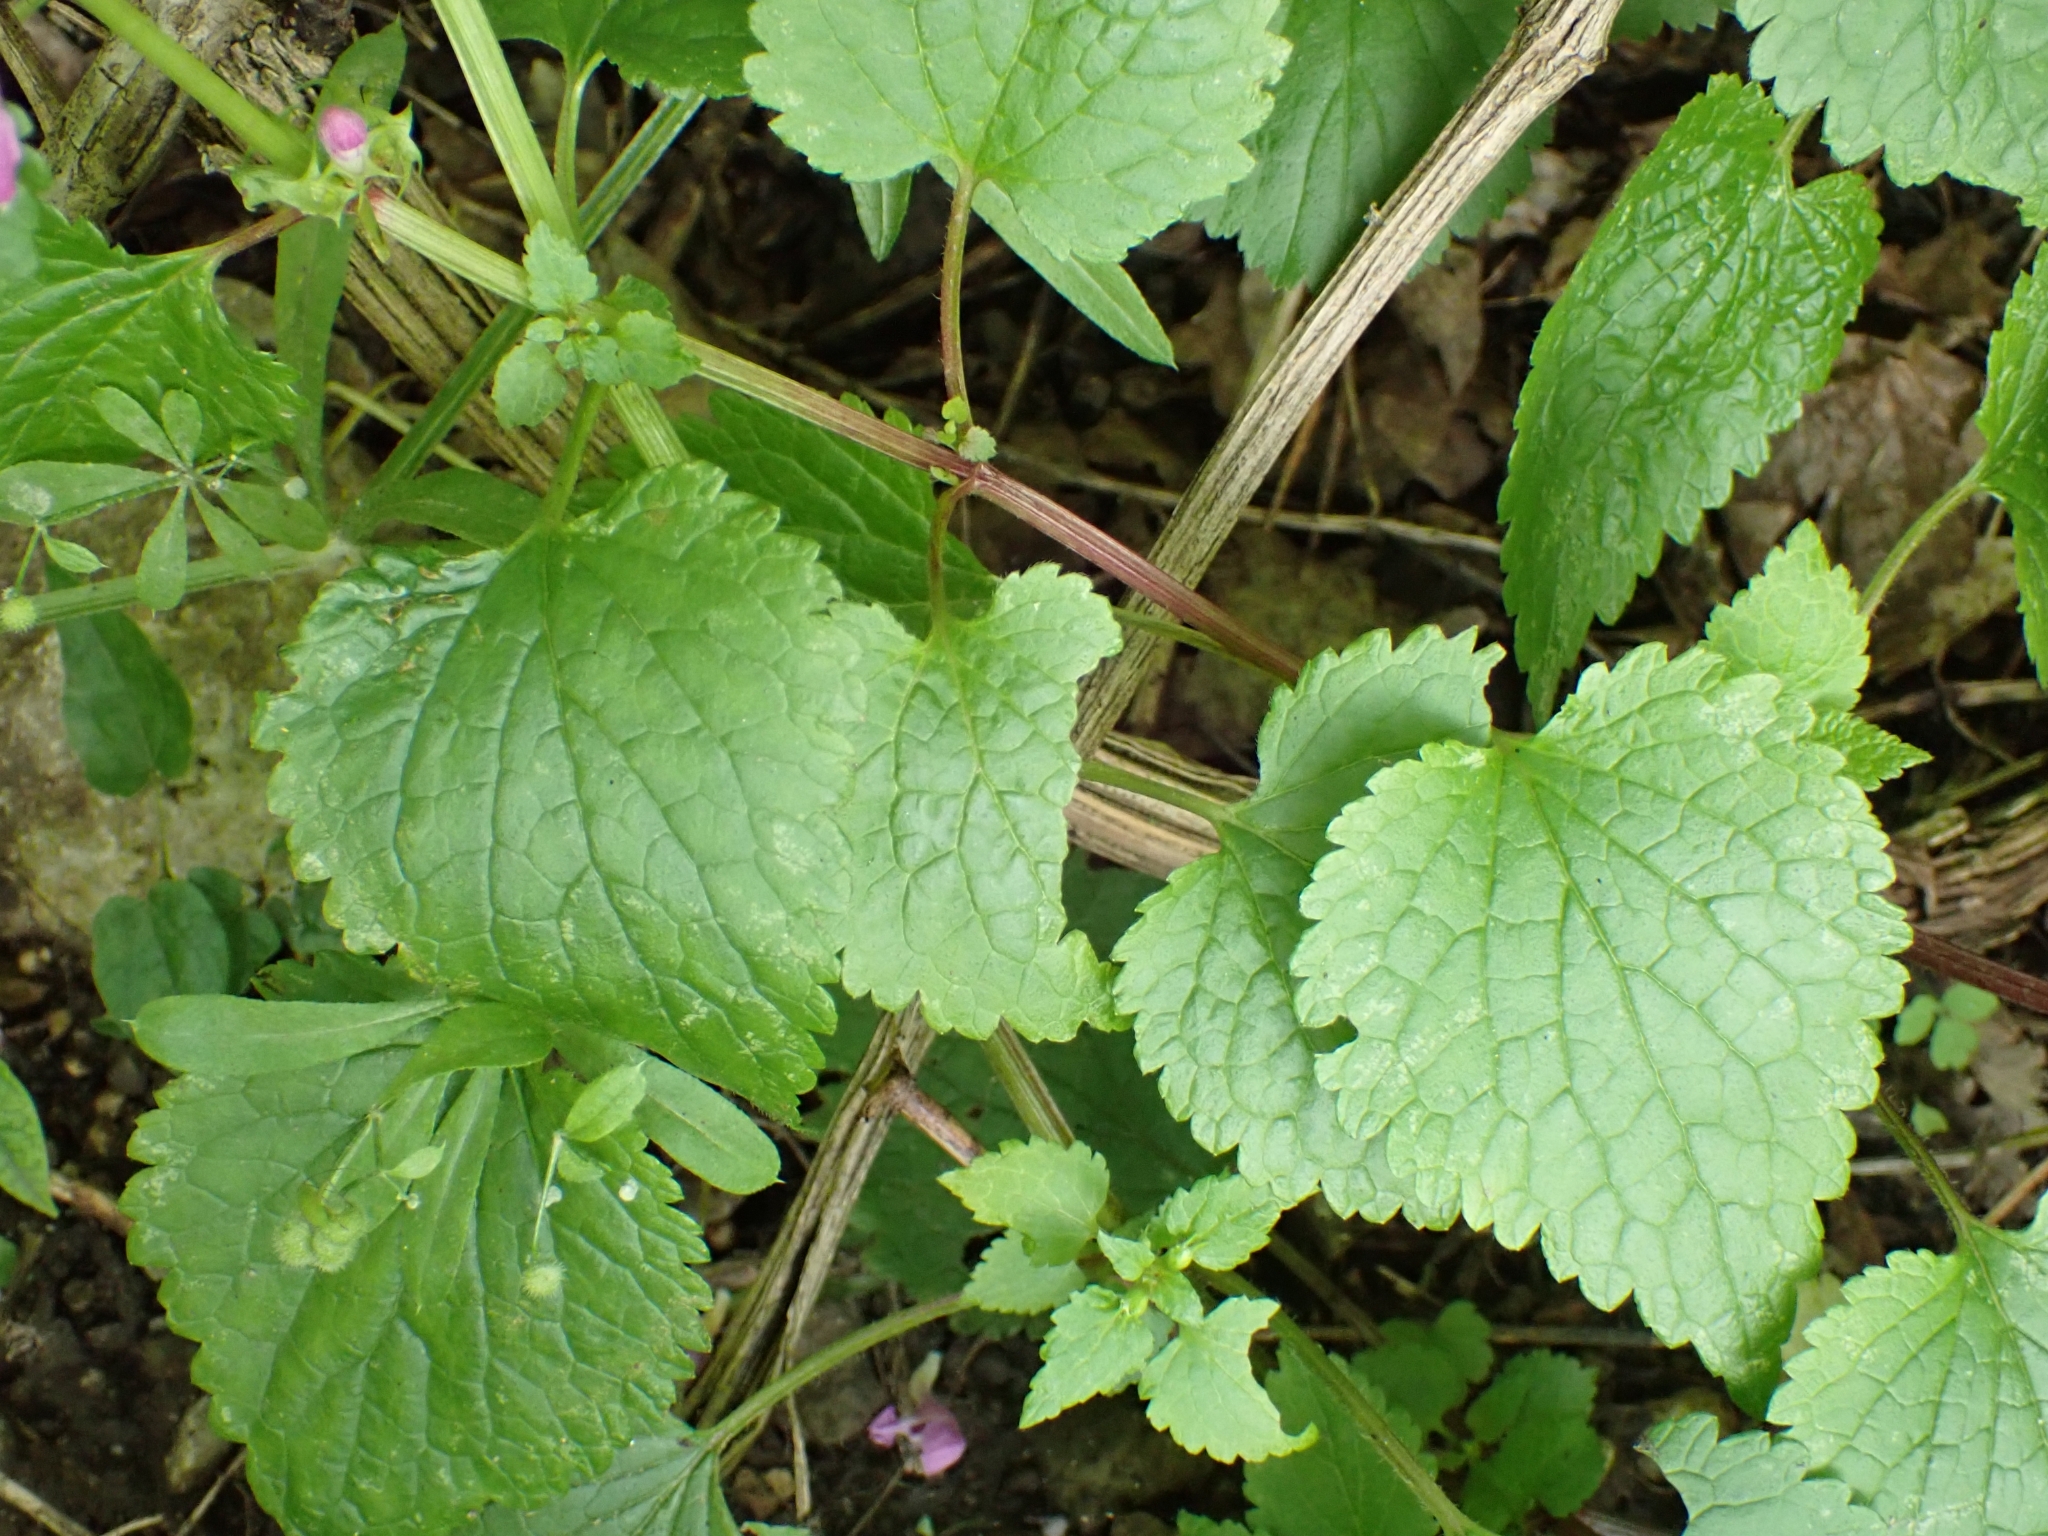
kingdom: Plantae
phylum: Tracheophyta
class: Magnoliopsida
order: Lamiales
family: Lamiaceae
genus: Lamium
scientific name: Lamium maculatum
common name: Spotted dead-nettle
